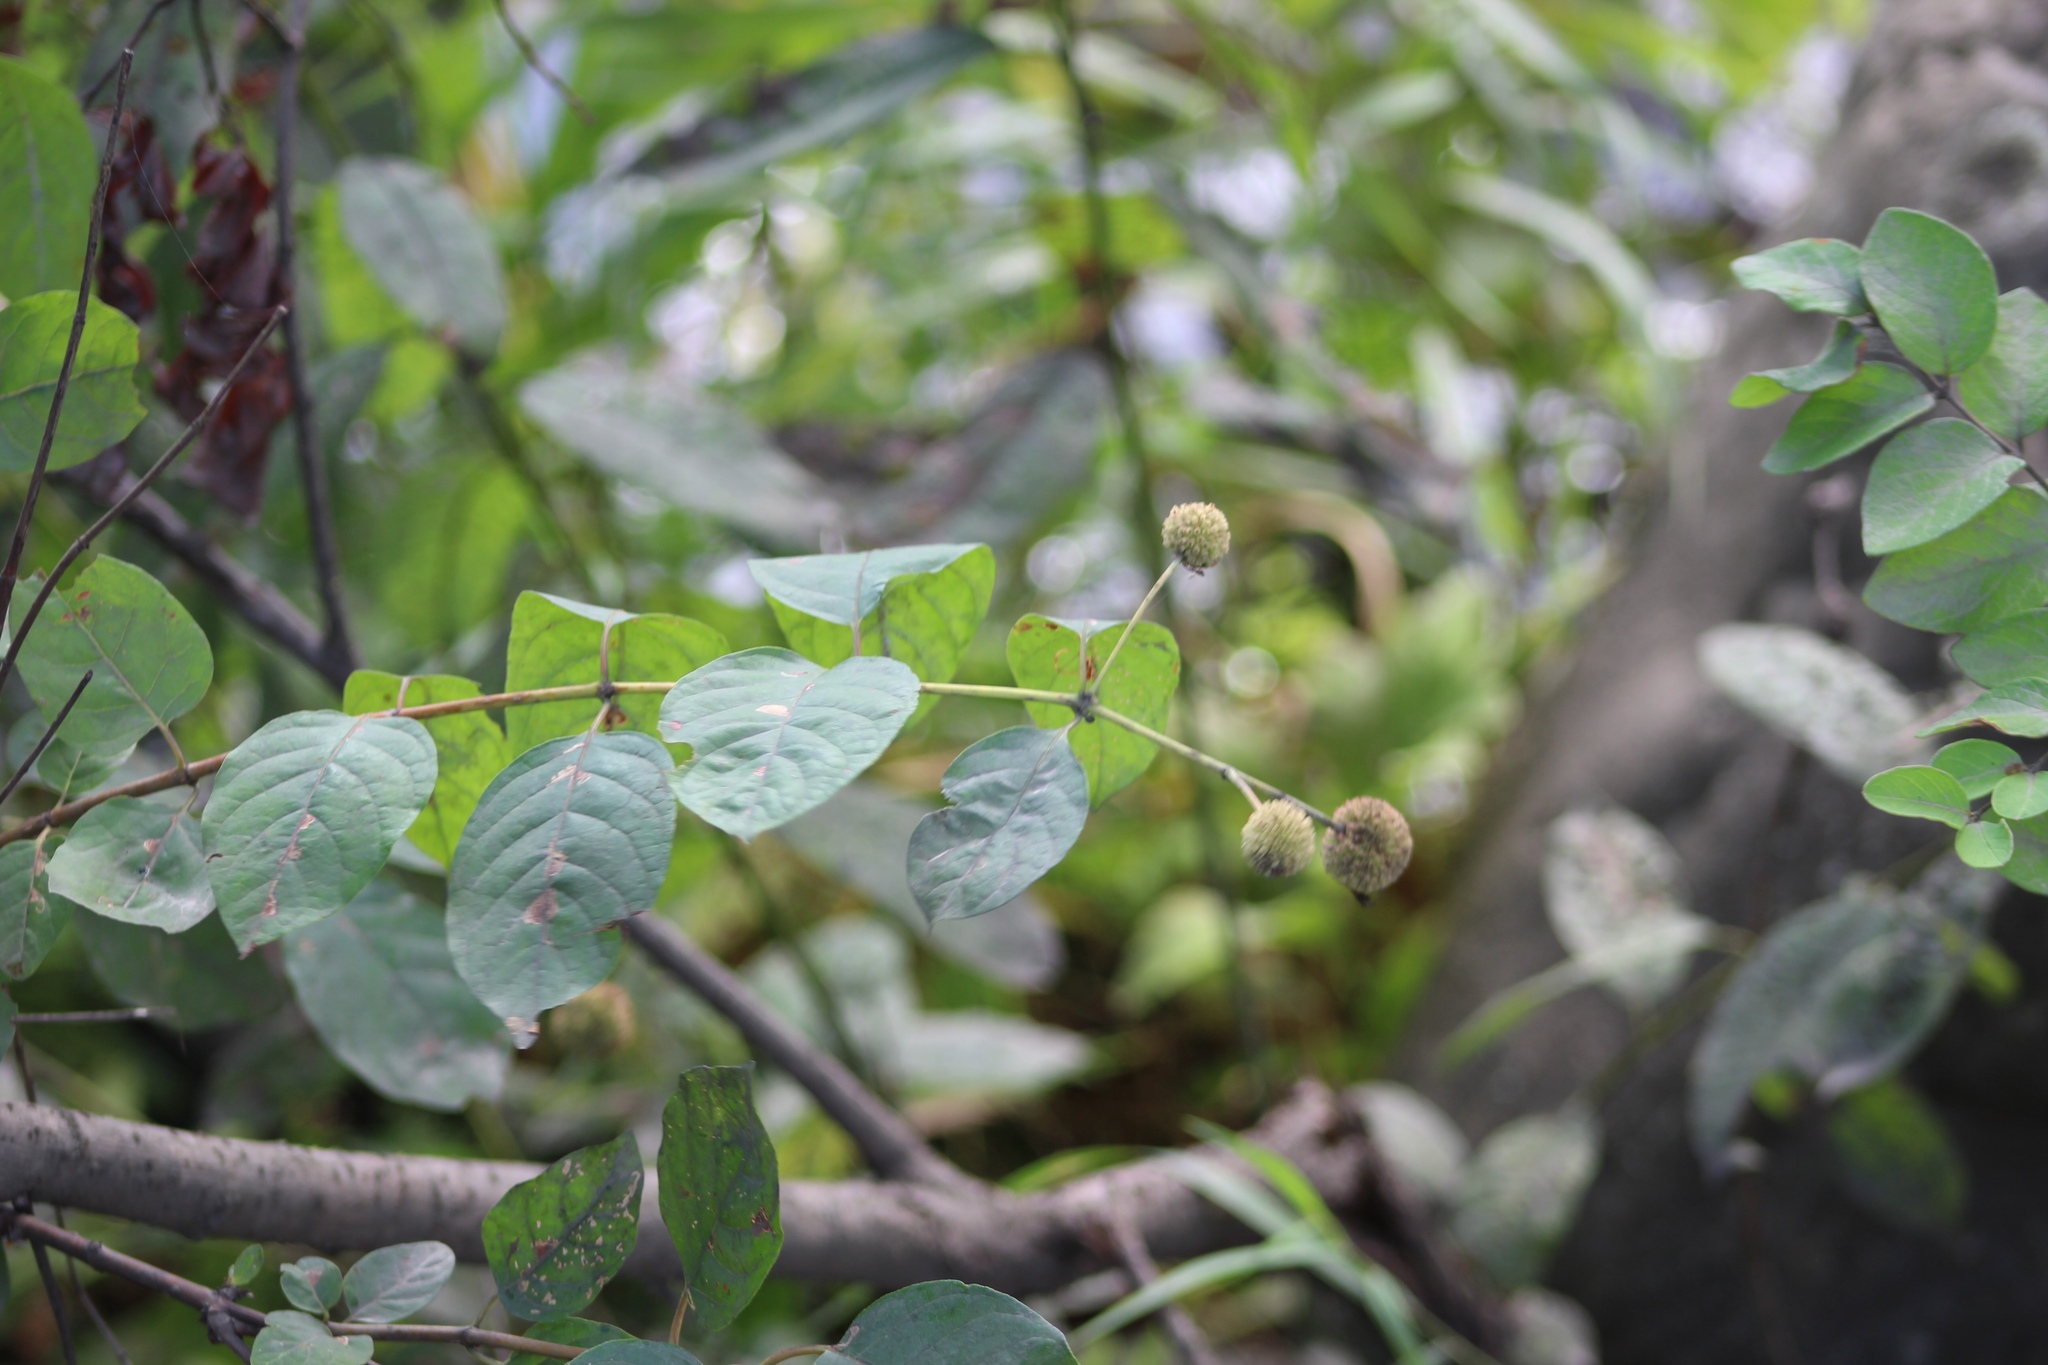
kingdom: Plantae
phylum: Tracheophyta
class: Magnoliopsida
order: Gentianales
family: Rubiaceae
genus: Cephalanthus
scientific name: Cephalanthus occidentalis
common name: Button-willow
